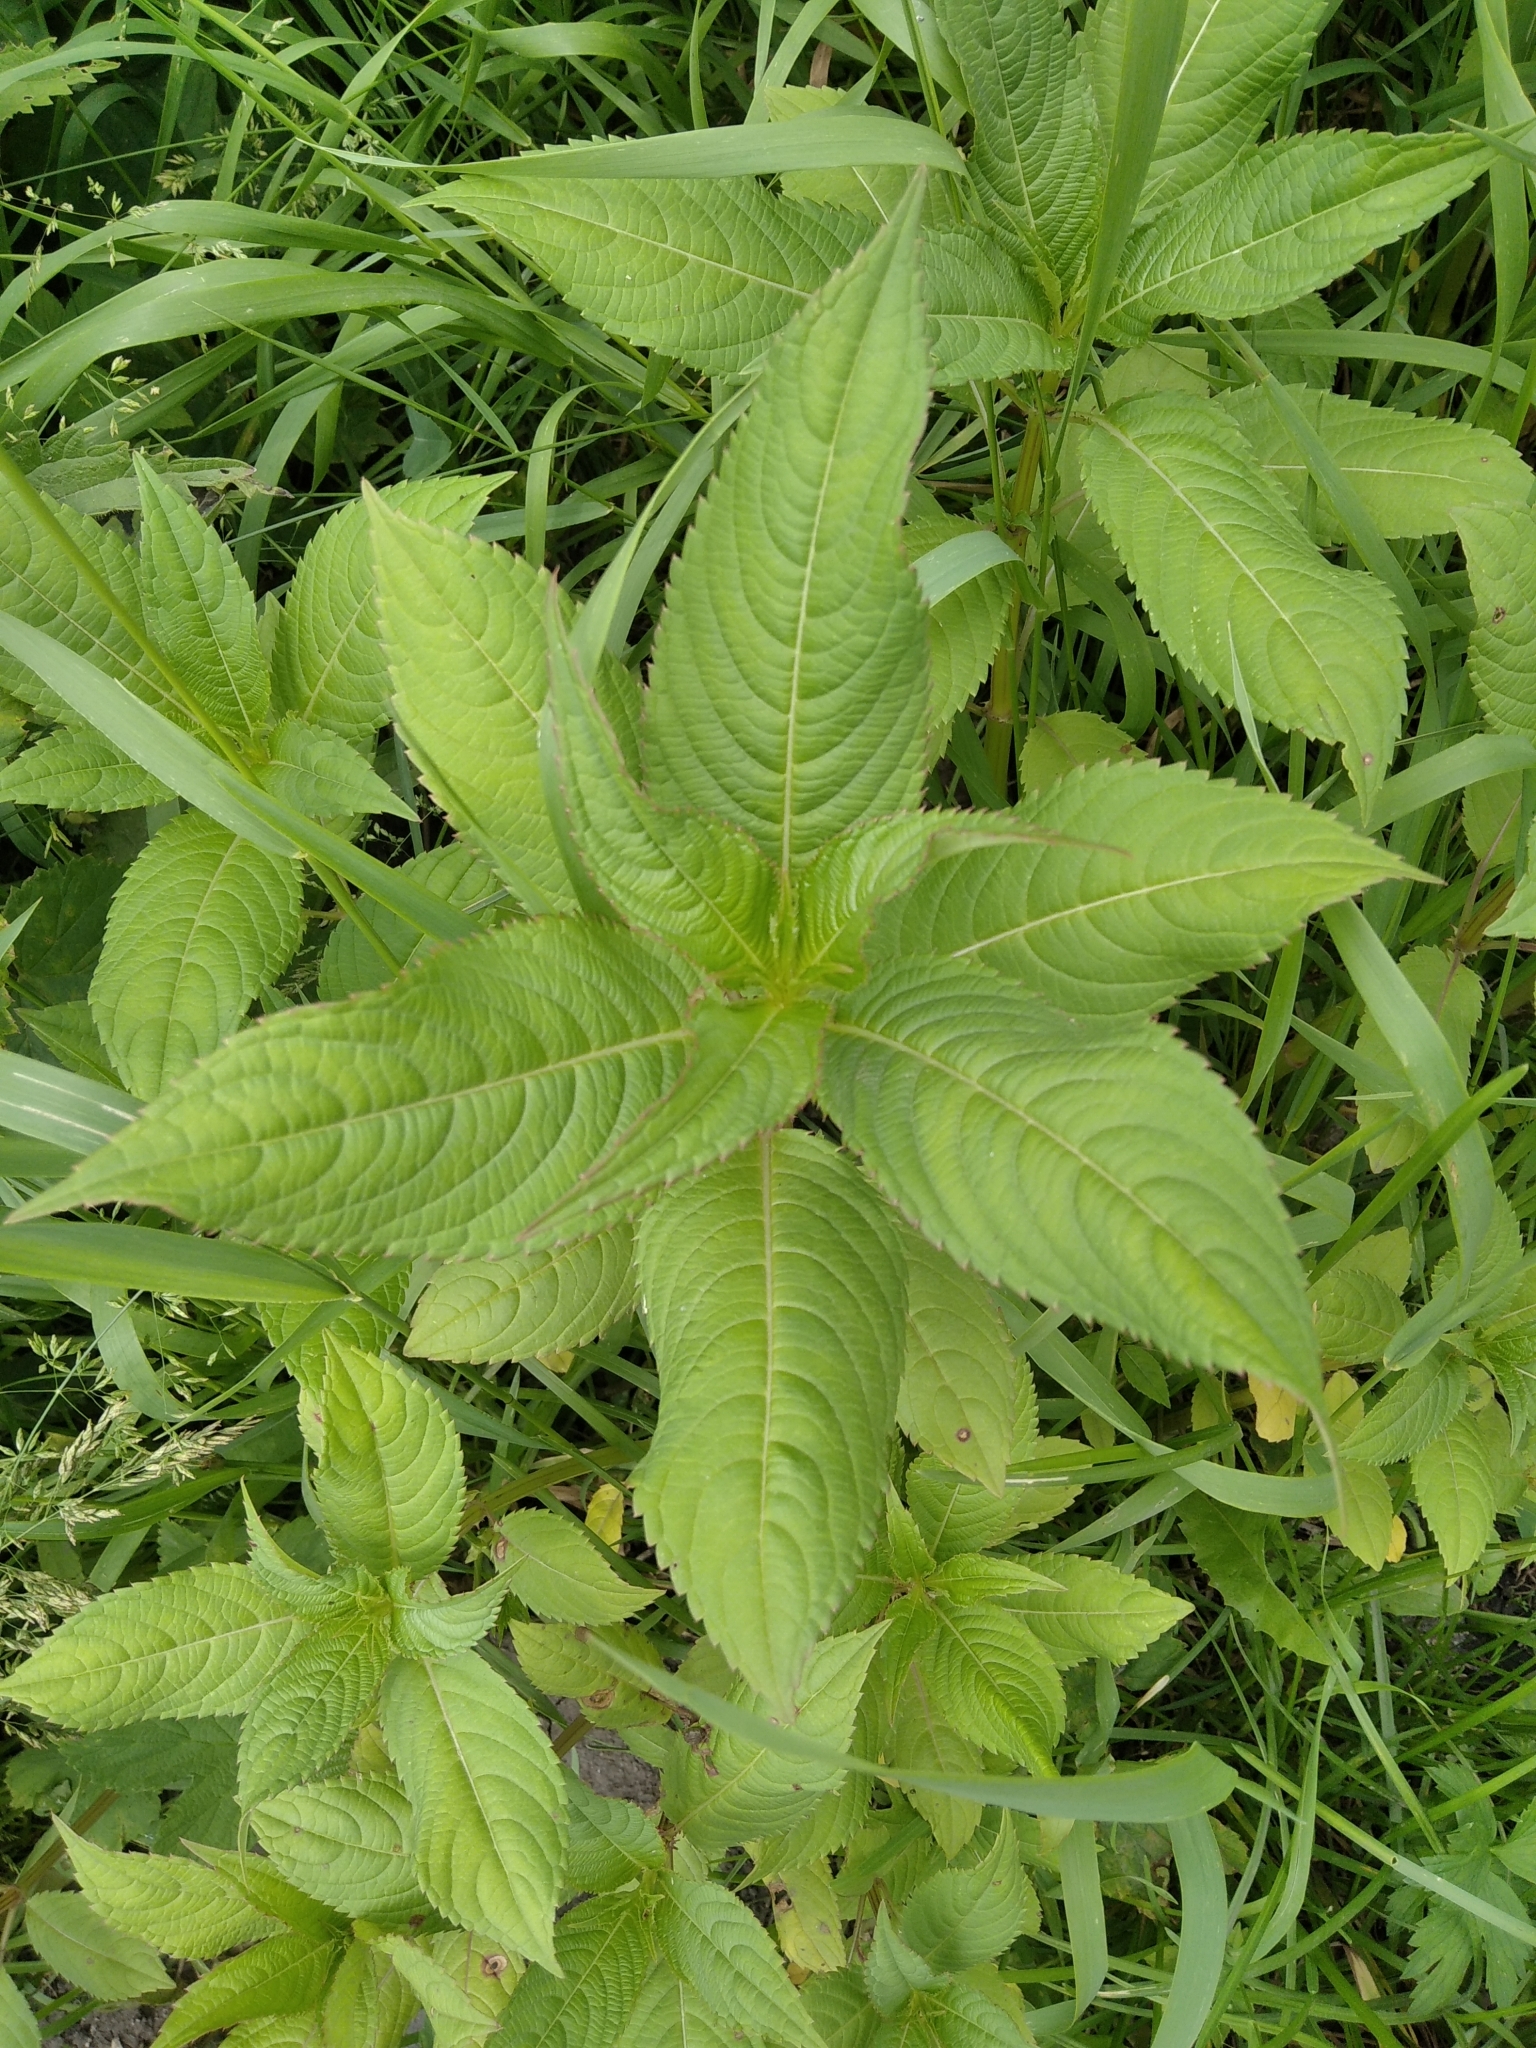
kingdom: Plantae
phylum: Tracheophyta
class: Magnoliopsida
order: Ericales
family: Balsaminaceae
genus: Impatiens
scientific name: Impatiens glandulifera
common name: Himalayan balsam
